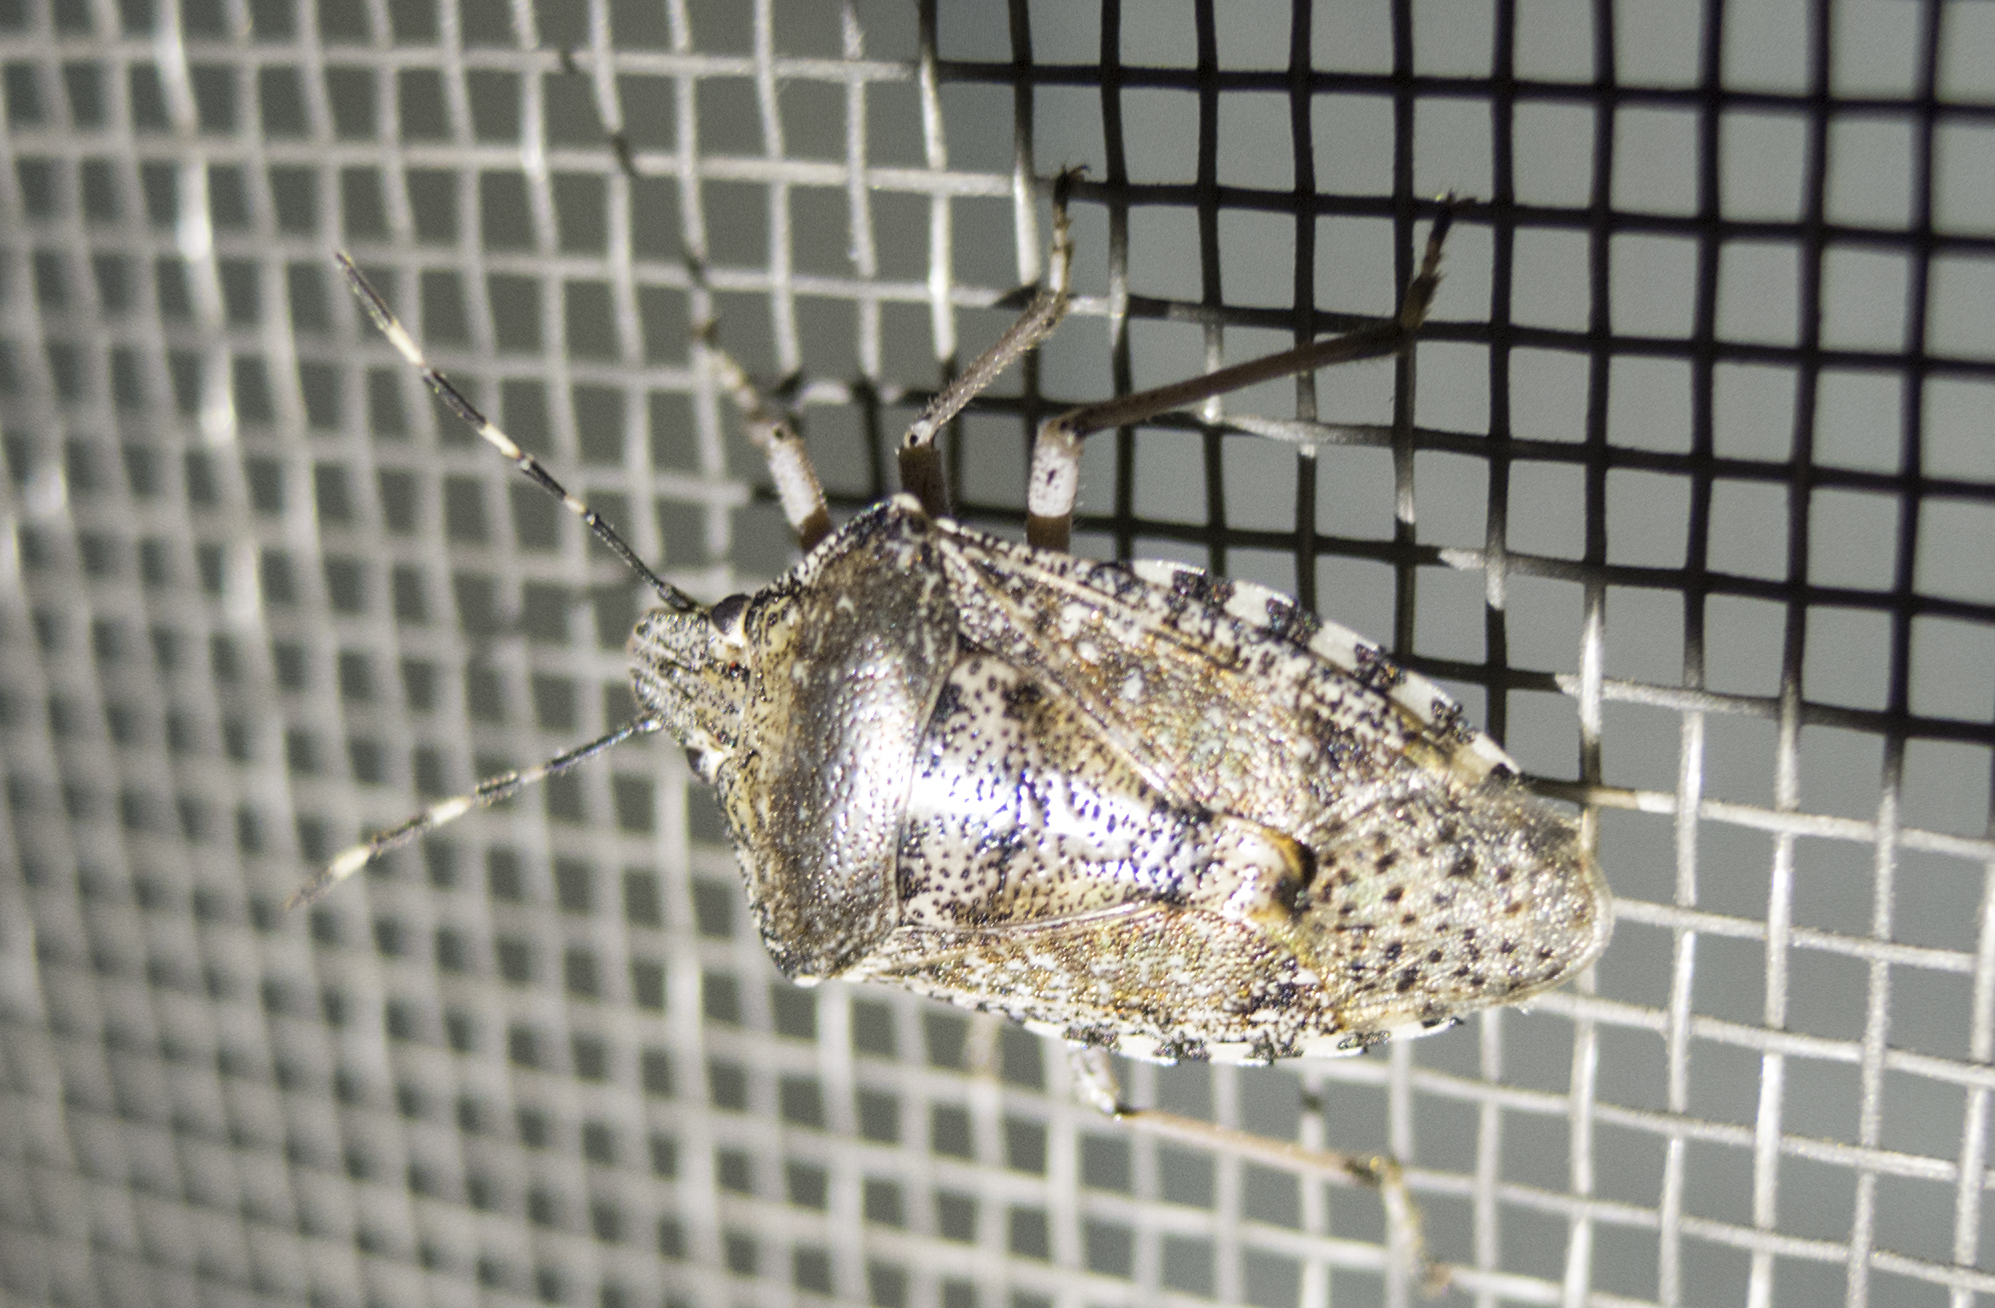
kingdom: Animalia
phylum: Arthropoda
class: Insecta
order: Hemiptera
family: Pentatomidae
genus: Rhaphigaster
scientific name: Rhaphigaster nebulosa
